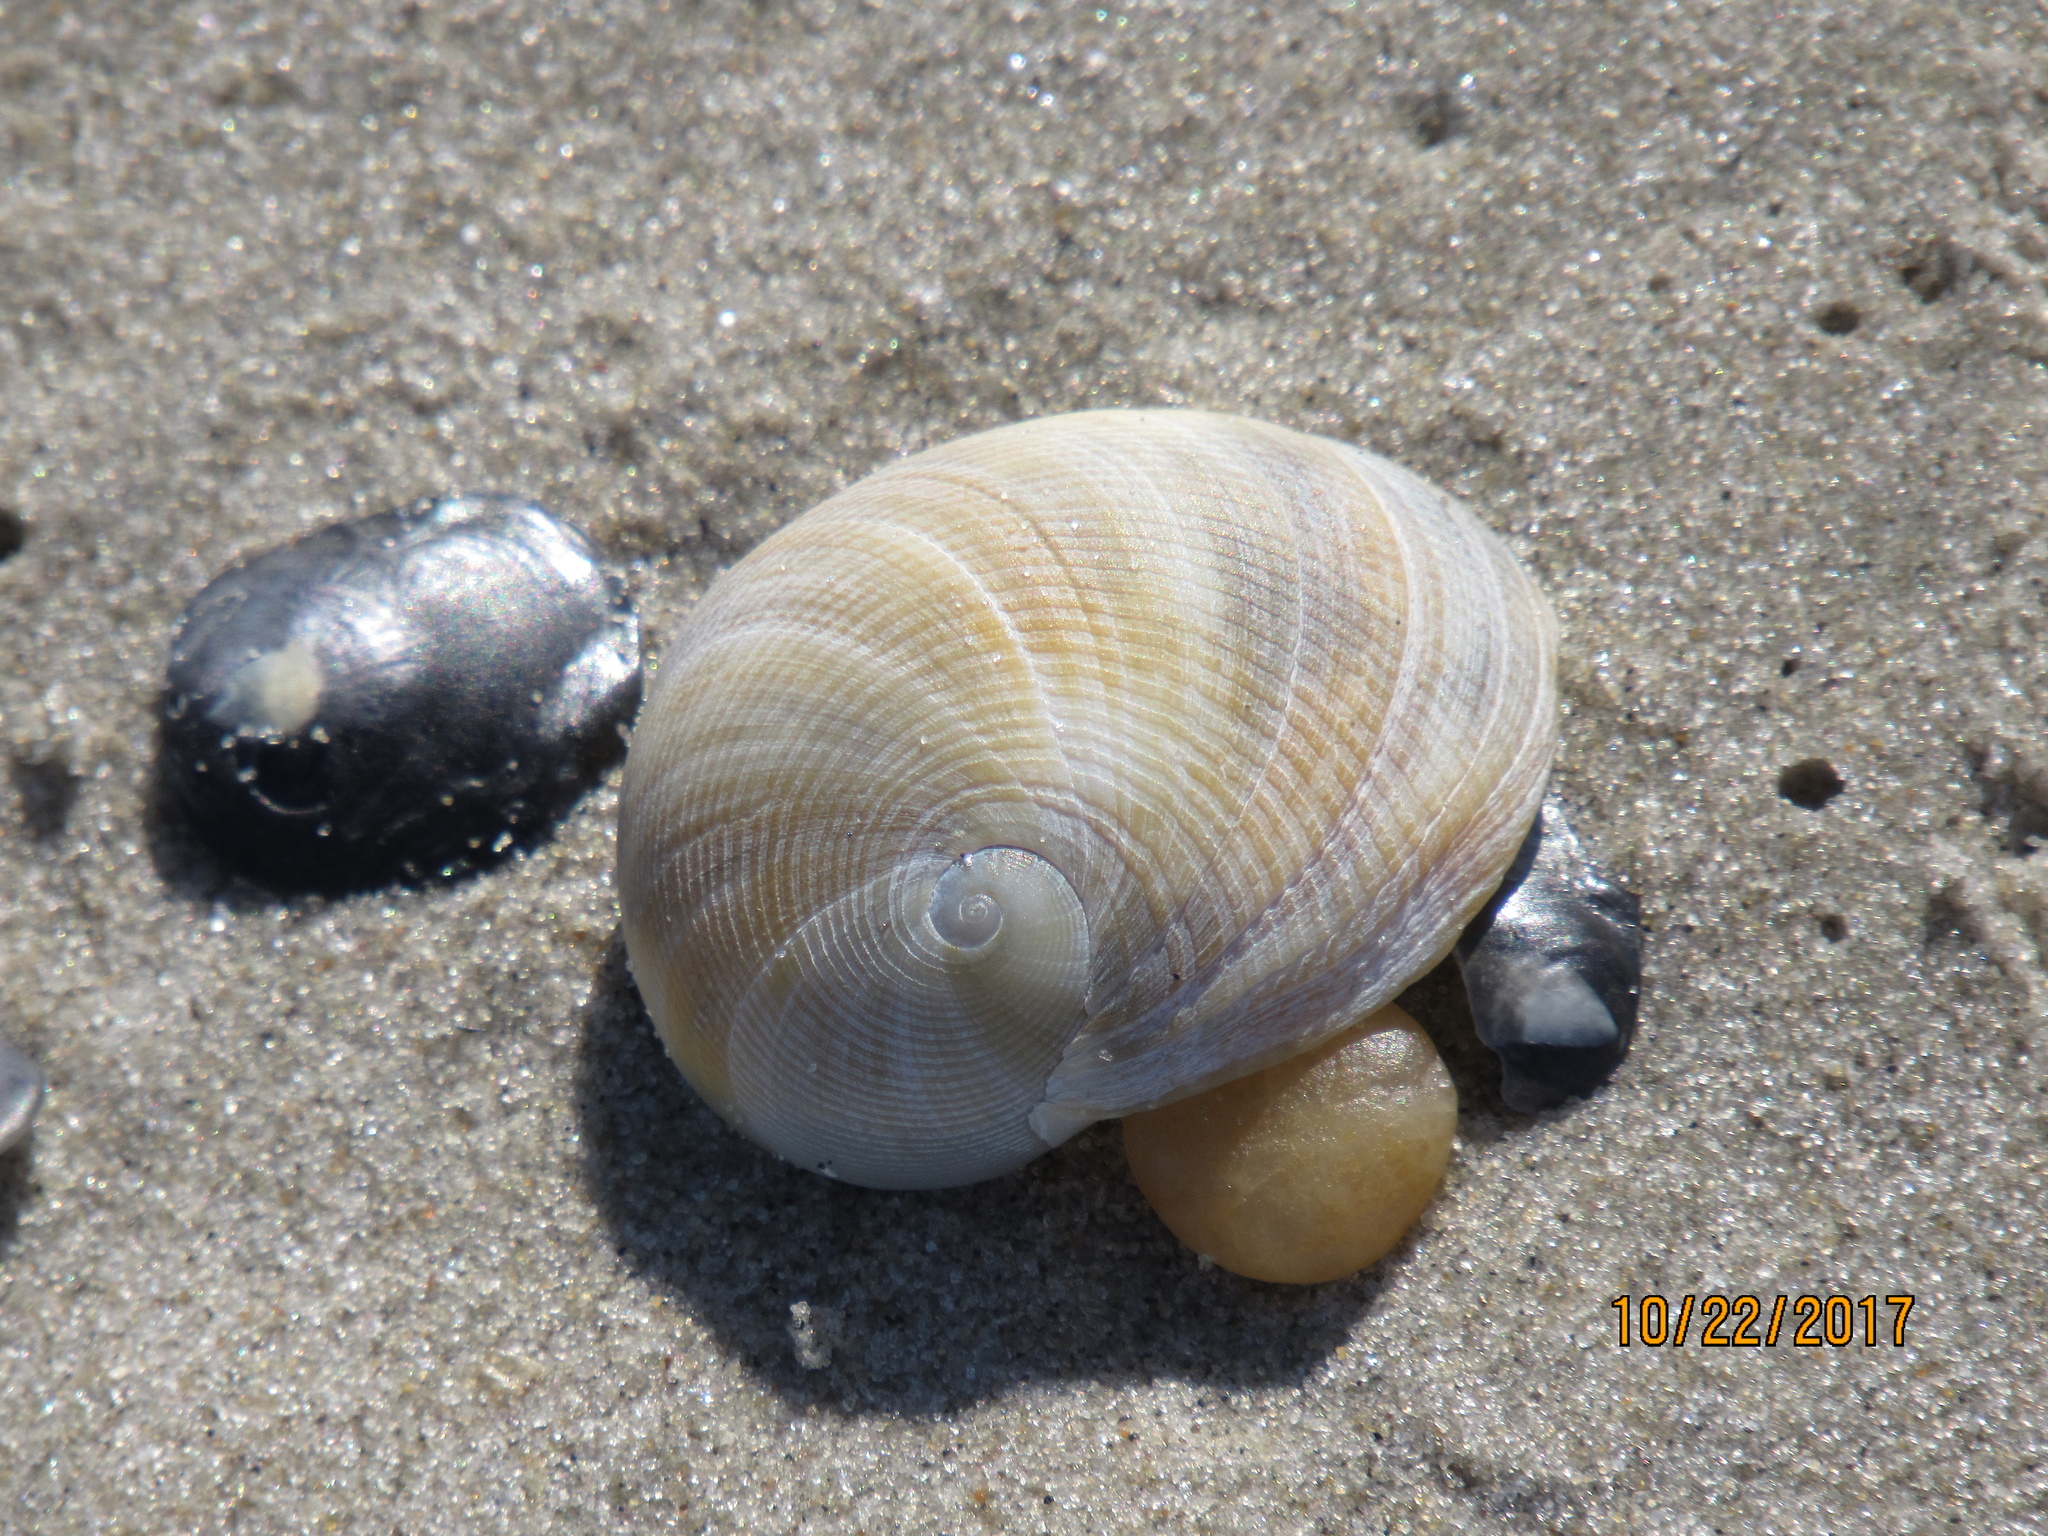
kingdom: Animalia
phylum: Mollusca
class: Gastropoda
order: Littorinimorpha
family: Naticidae
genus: Sinum
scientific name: Sinum perspectivum
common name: White baby ear
